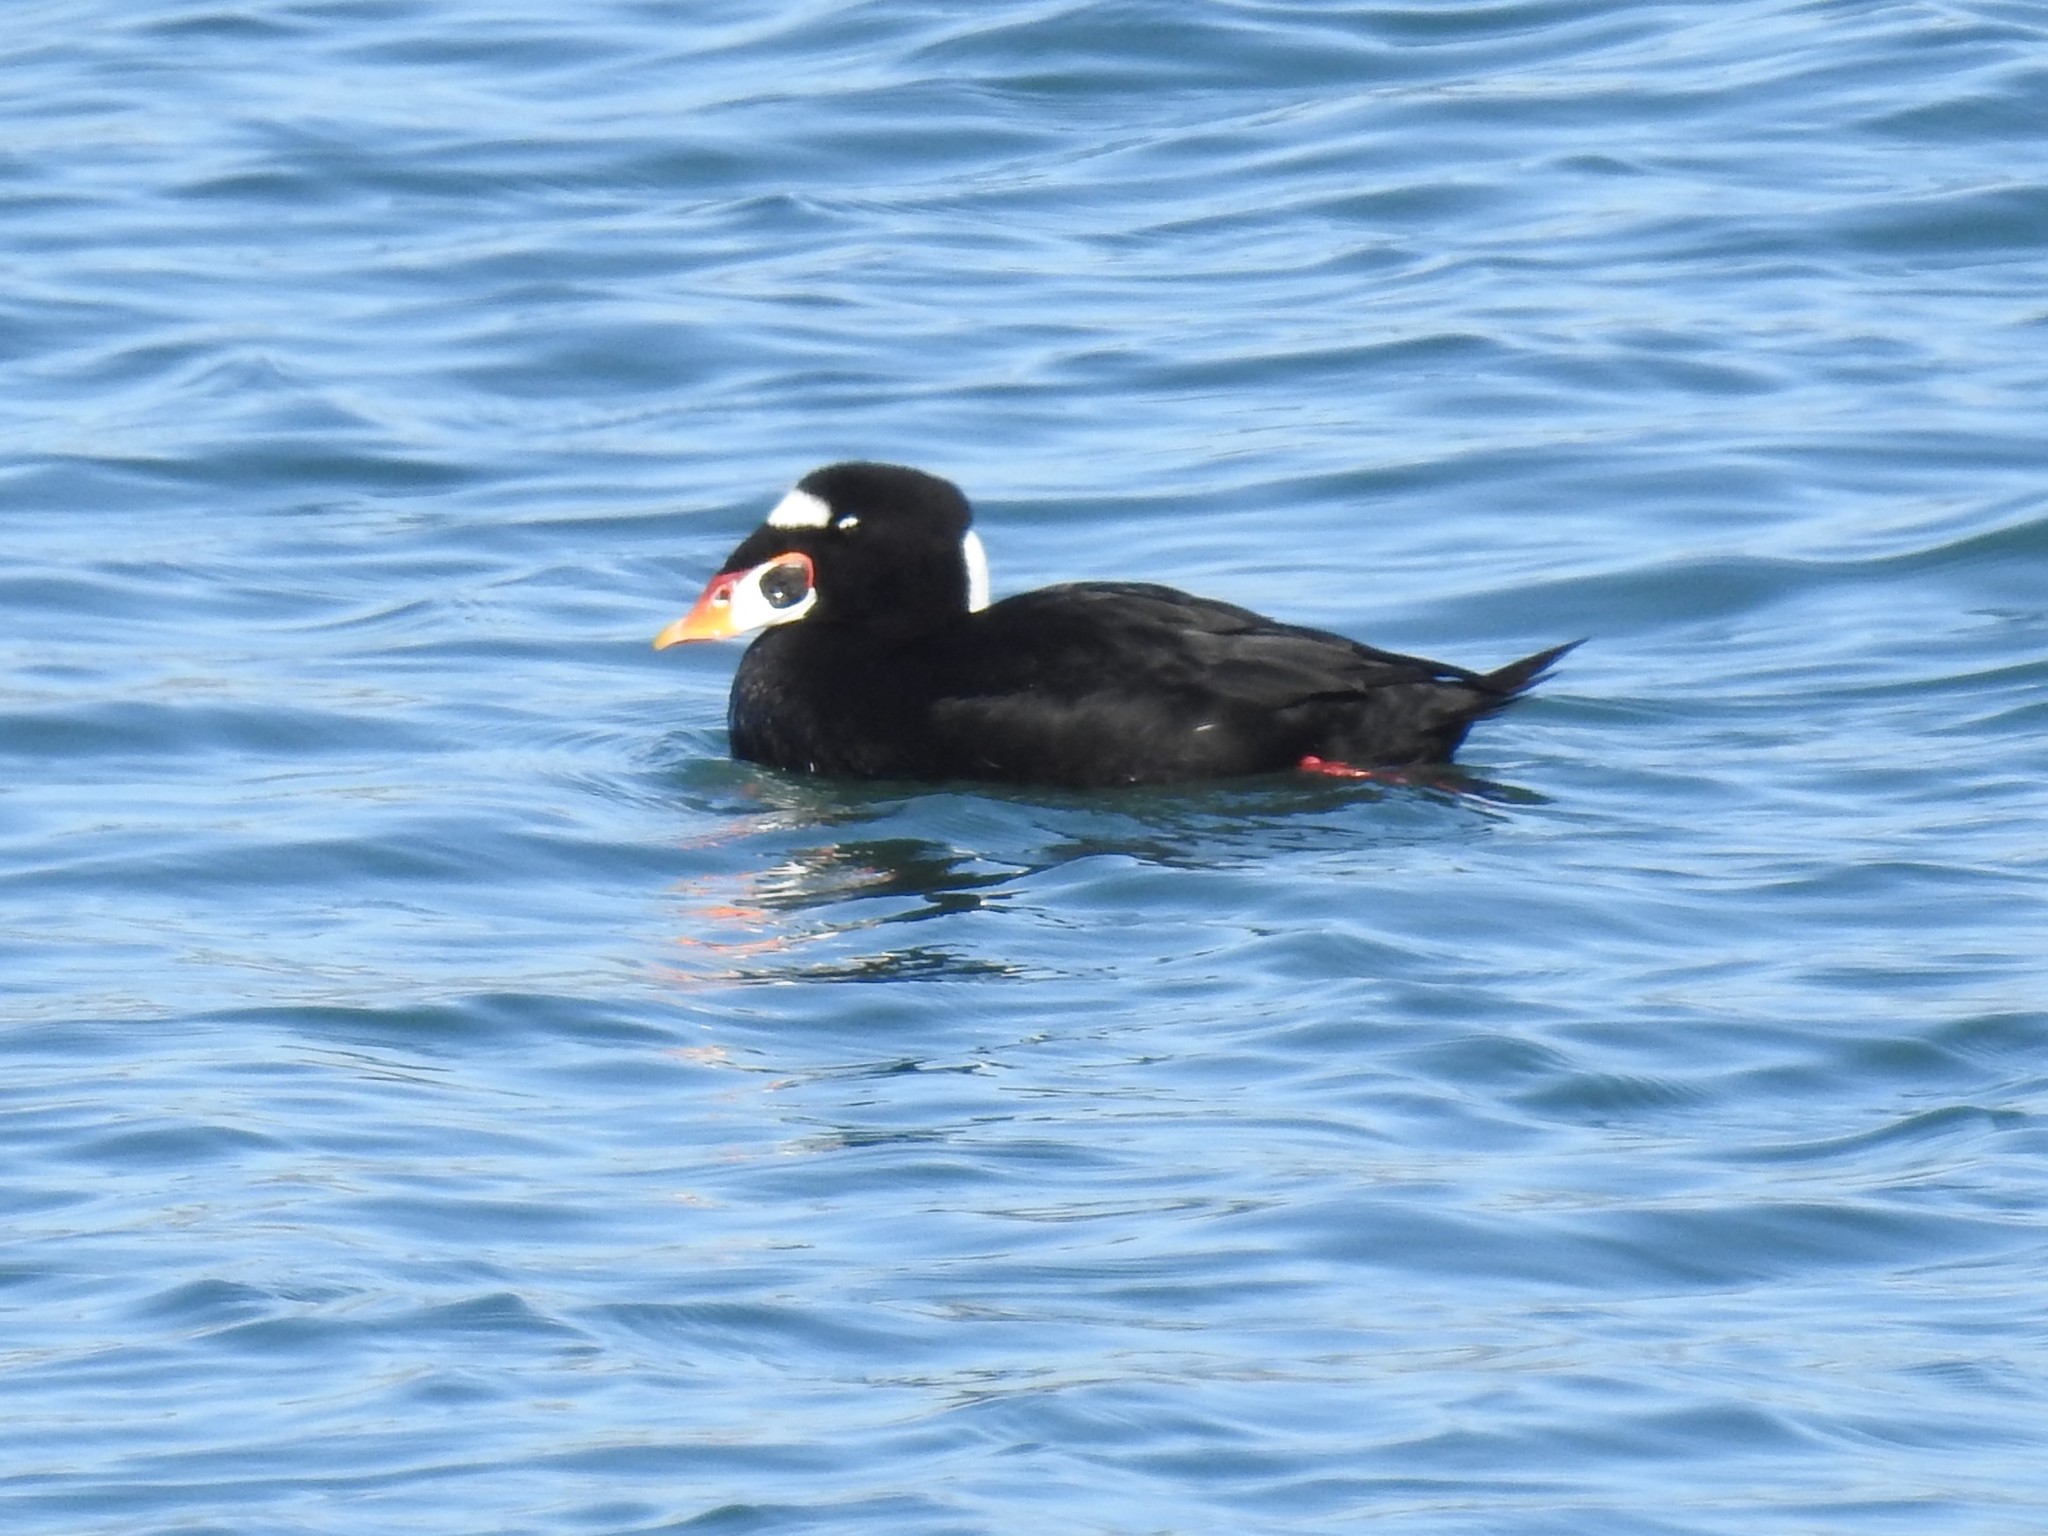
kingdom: Animalia
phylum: Chordata
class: Aves
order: Anseriformes
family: Anatidae
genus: Melanitta
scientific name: Melanitta perspicillata
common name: Surf scoter
